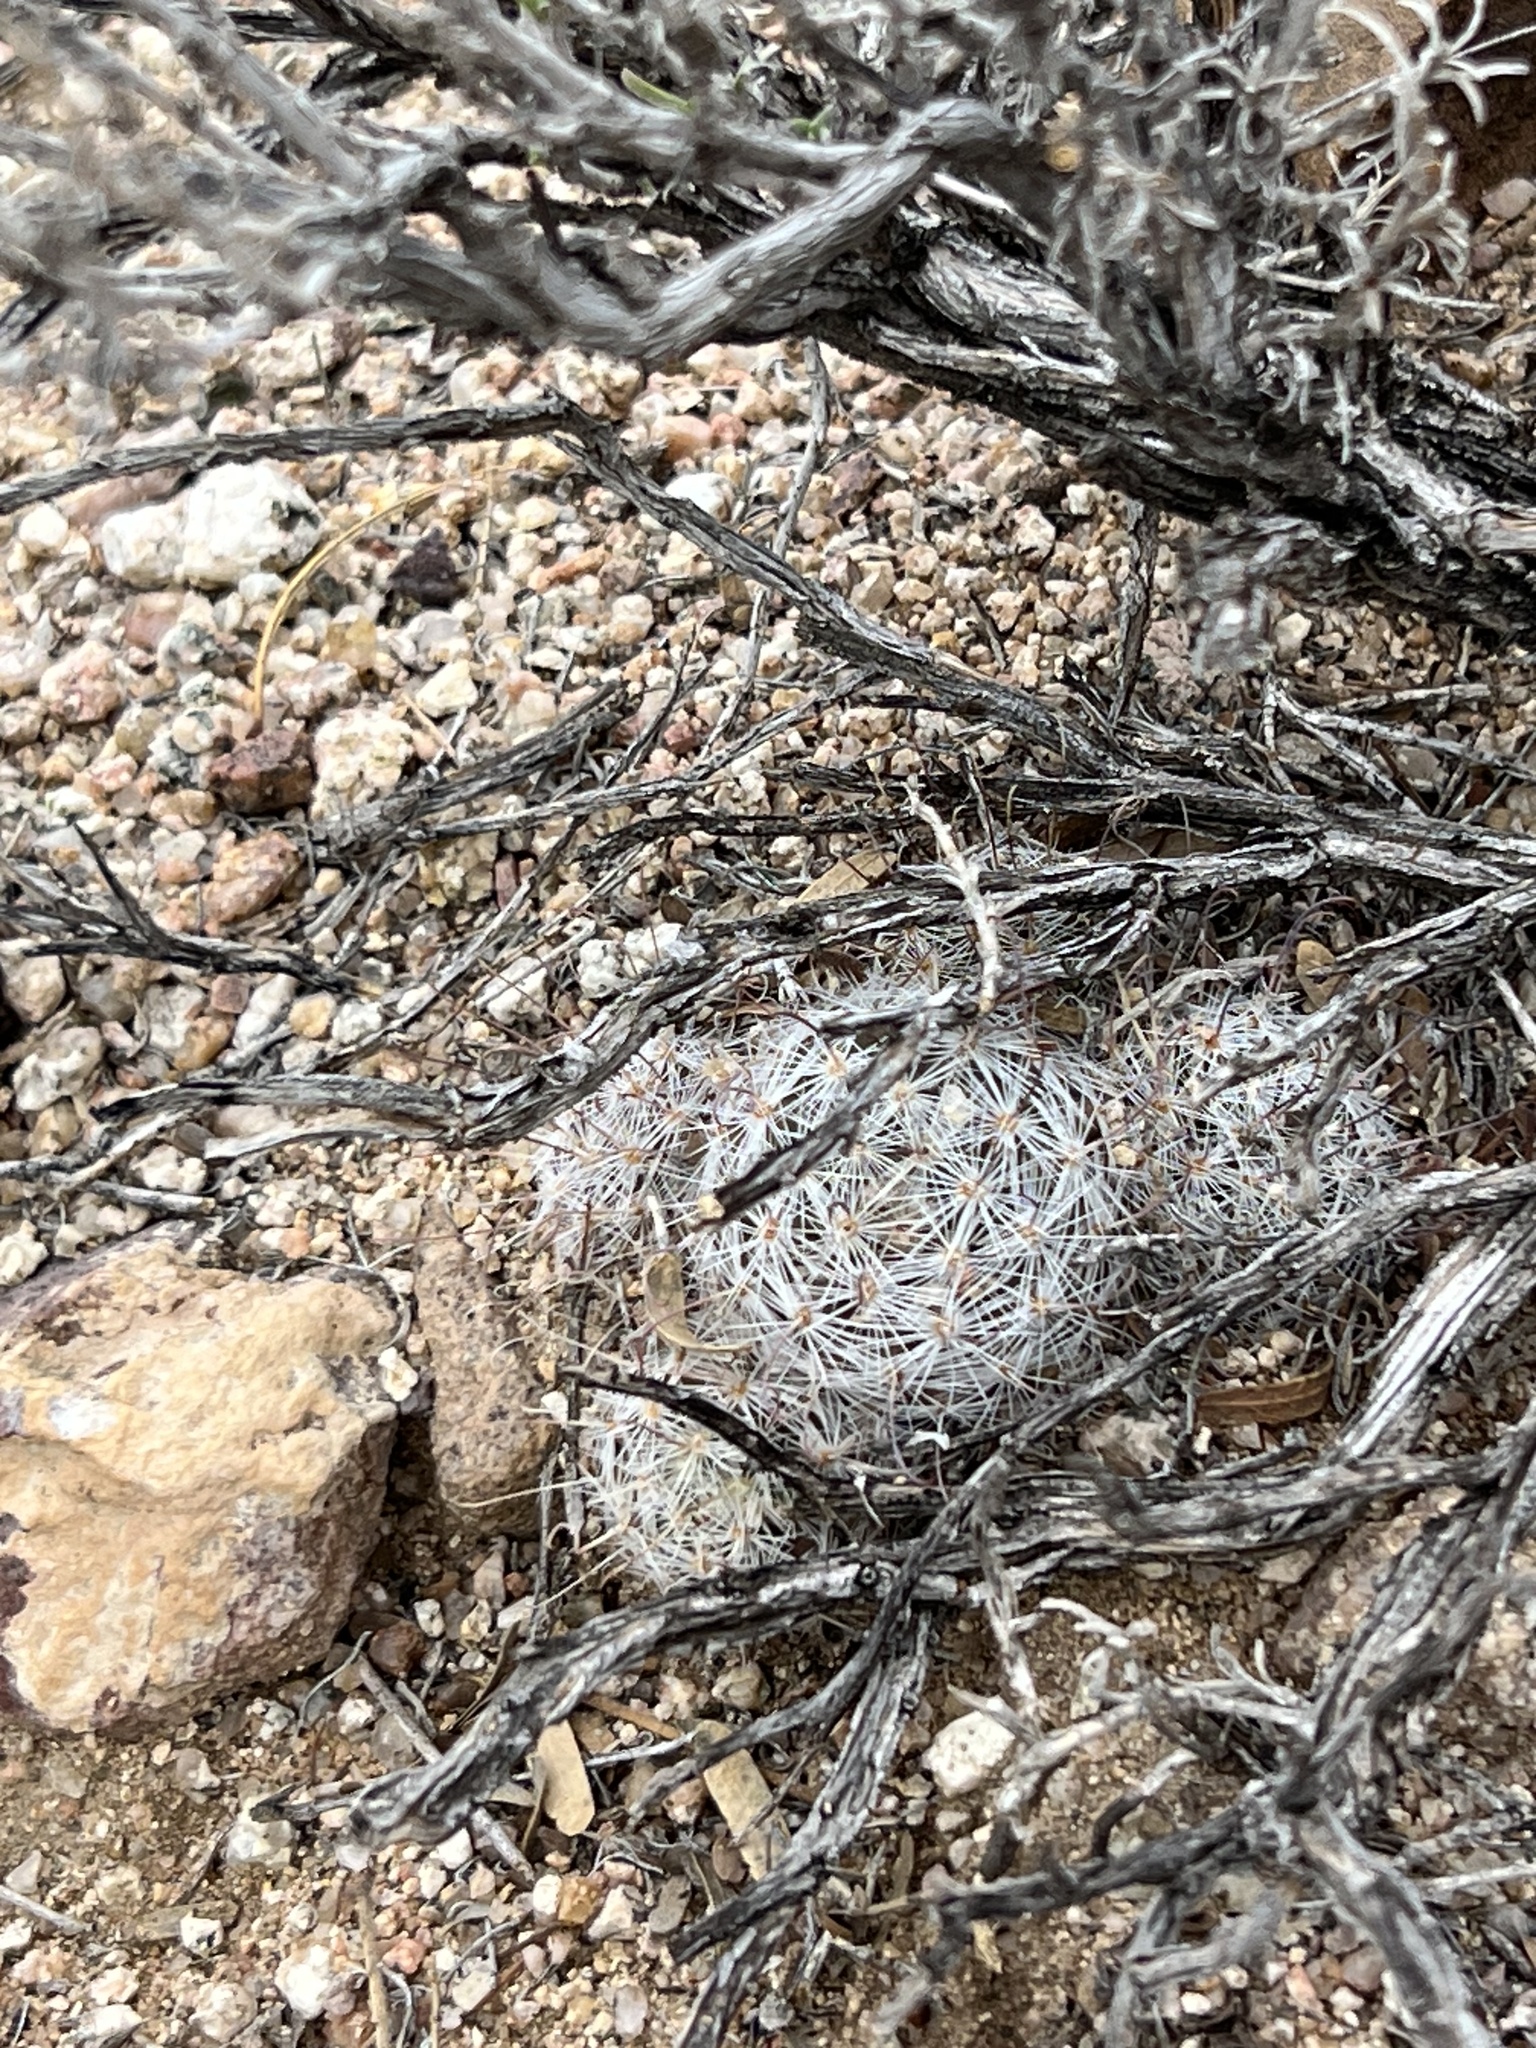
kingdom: Plantae
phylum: Tracheophyta
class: Magnoliopsida
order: Caryophyllales
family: Cactaceae
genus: Cochemiea
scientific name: Cochemiea grahamii
